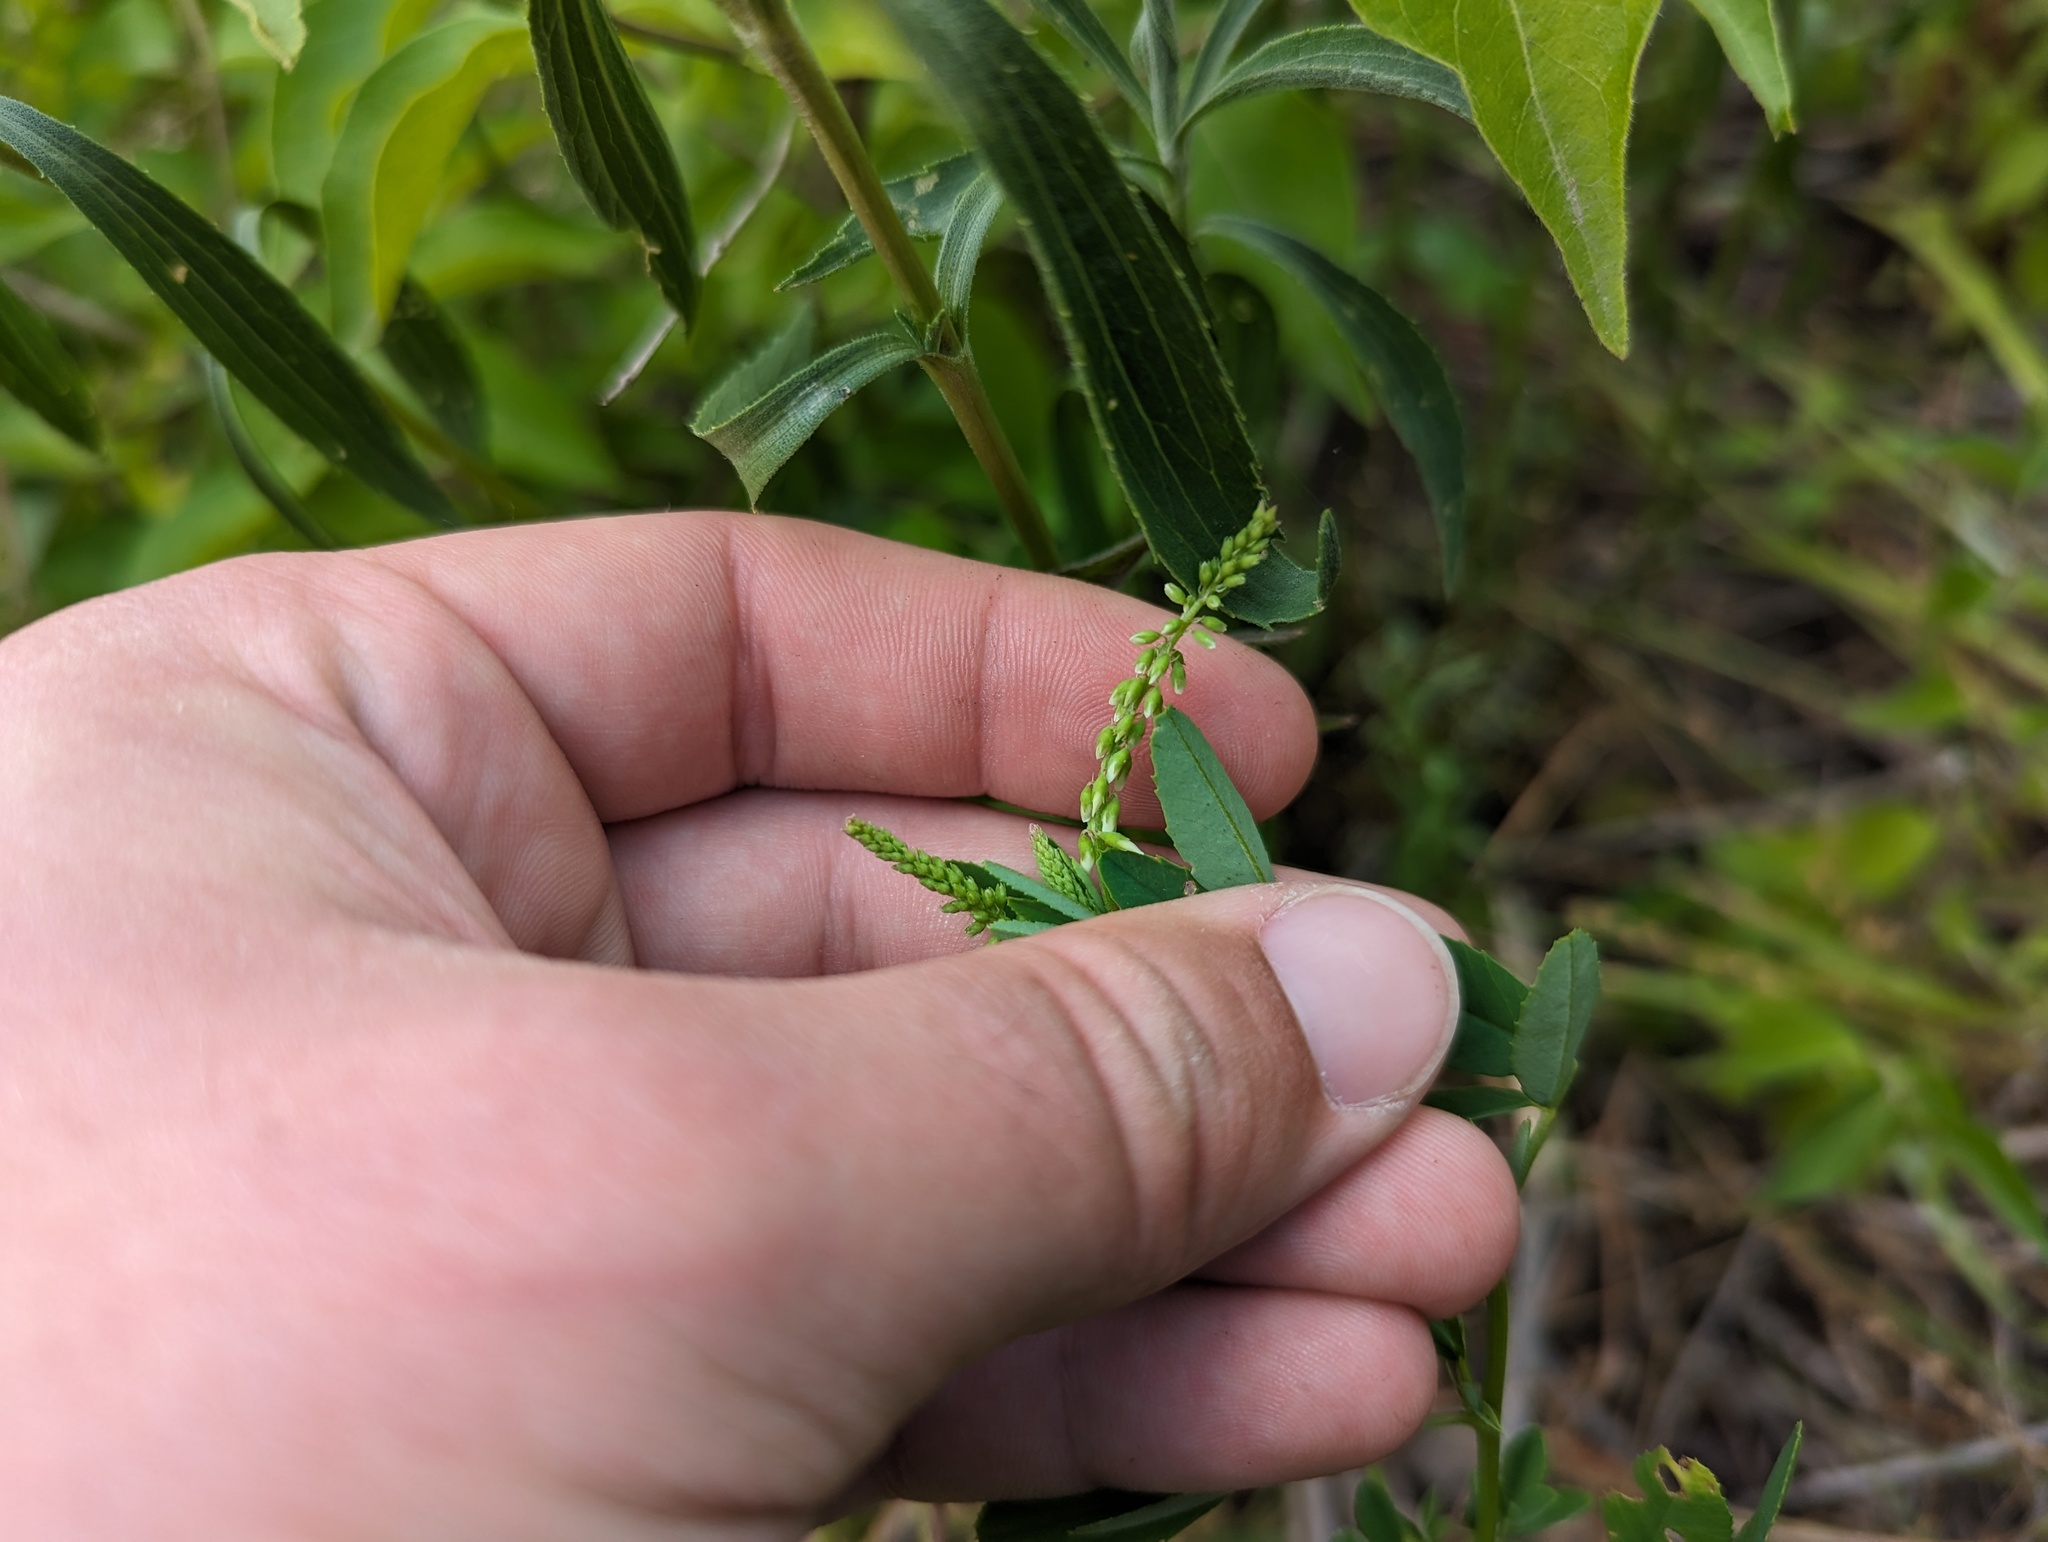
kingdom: Plantae
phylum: Tracheophyta
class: Magnoliopsida
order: Fabales
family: Fabaceae
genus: Melilotus
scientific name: Melilotus albus
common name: White melilot
